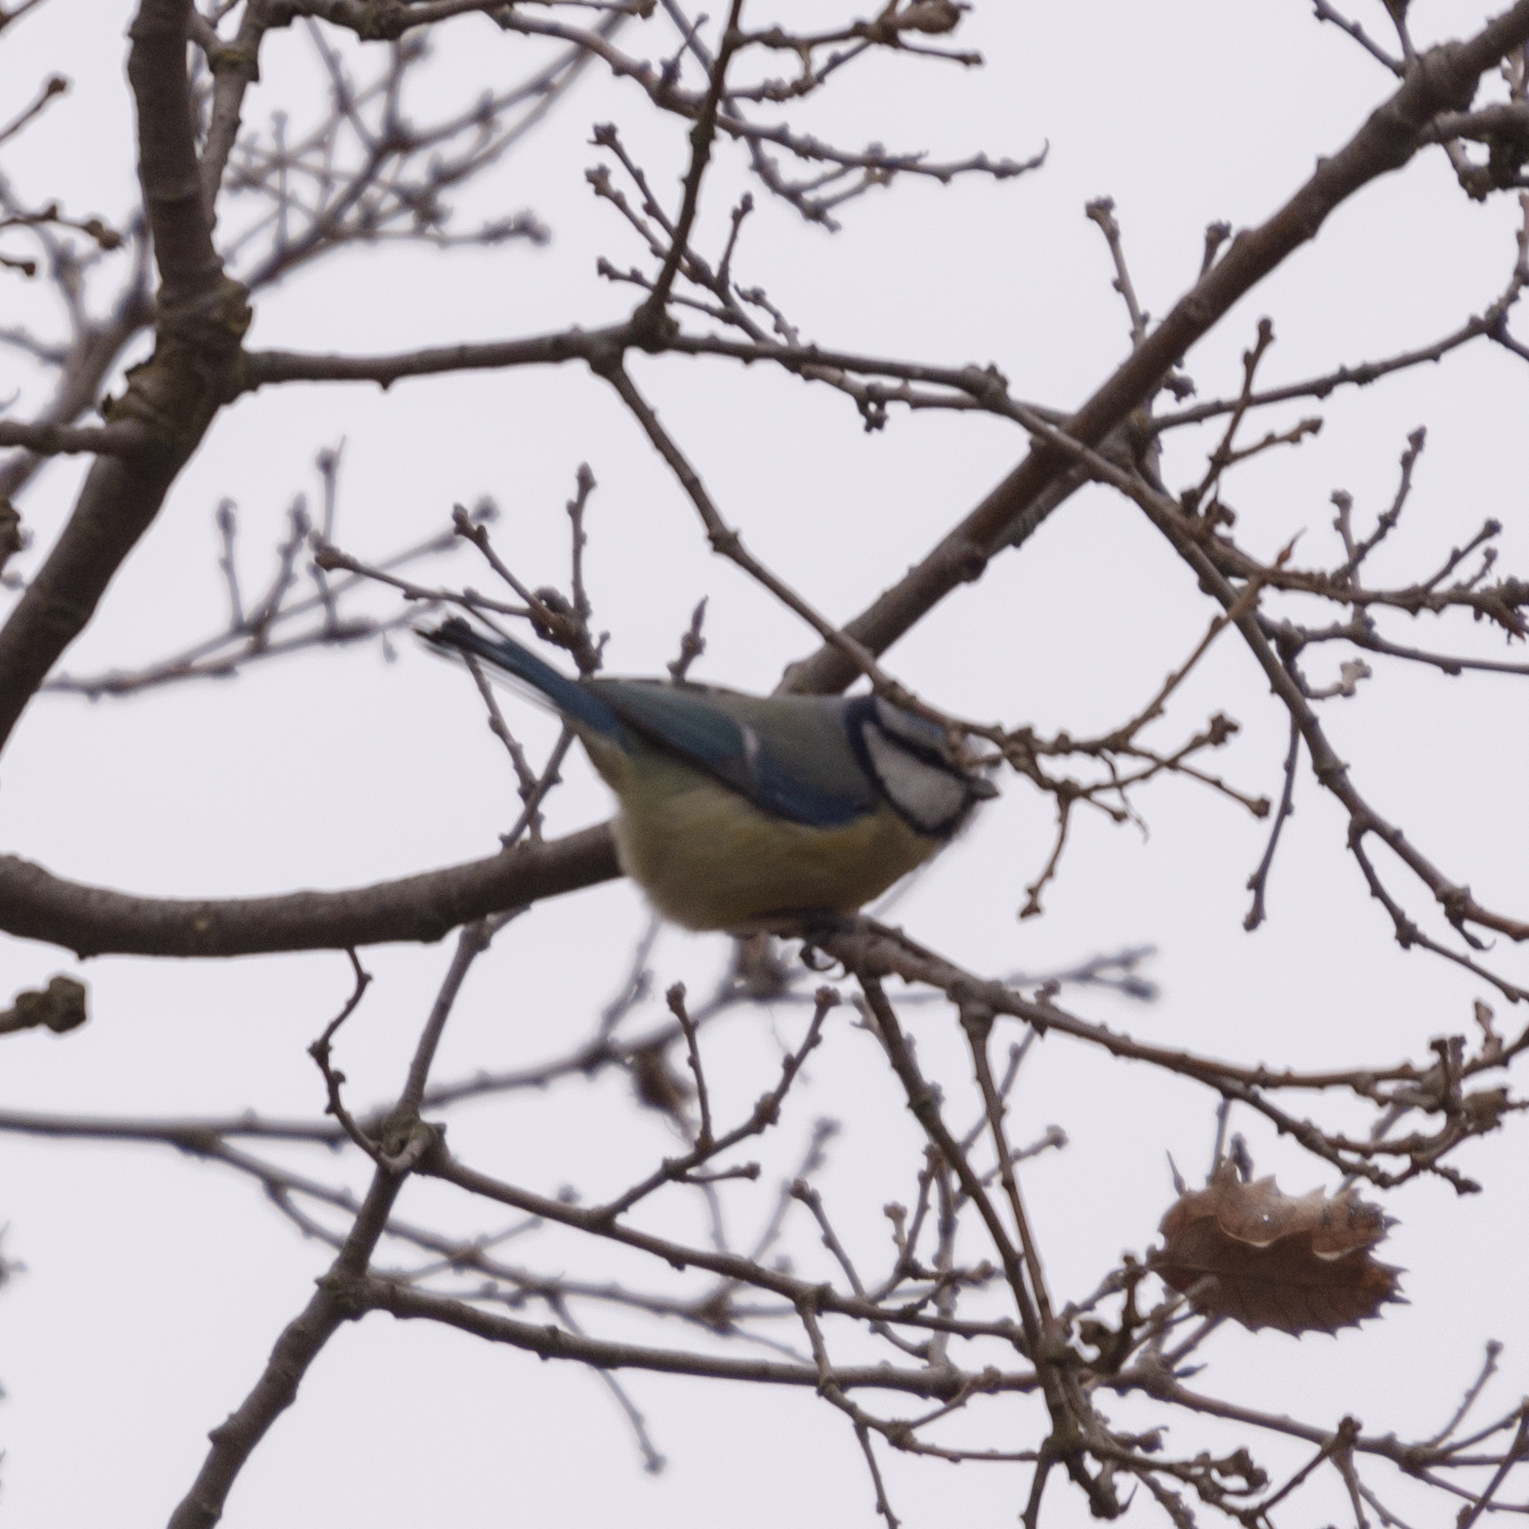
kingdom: Animalia
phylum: Chordata
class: Aves
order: Passeriformes
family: Paridae
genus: Cyanistes
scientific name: Cyanistes caeruleus
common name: Eurasian blue tit
